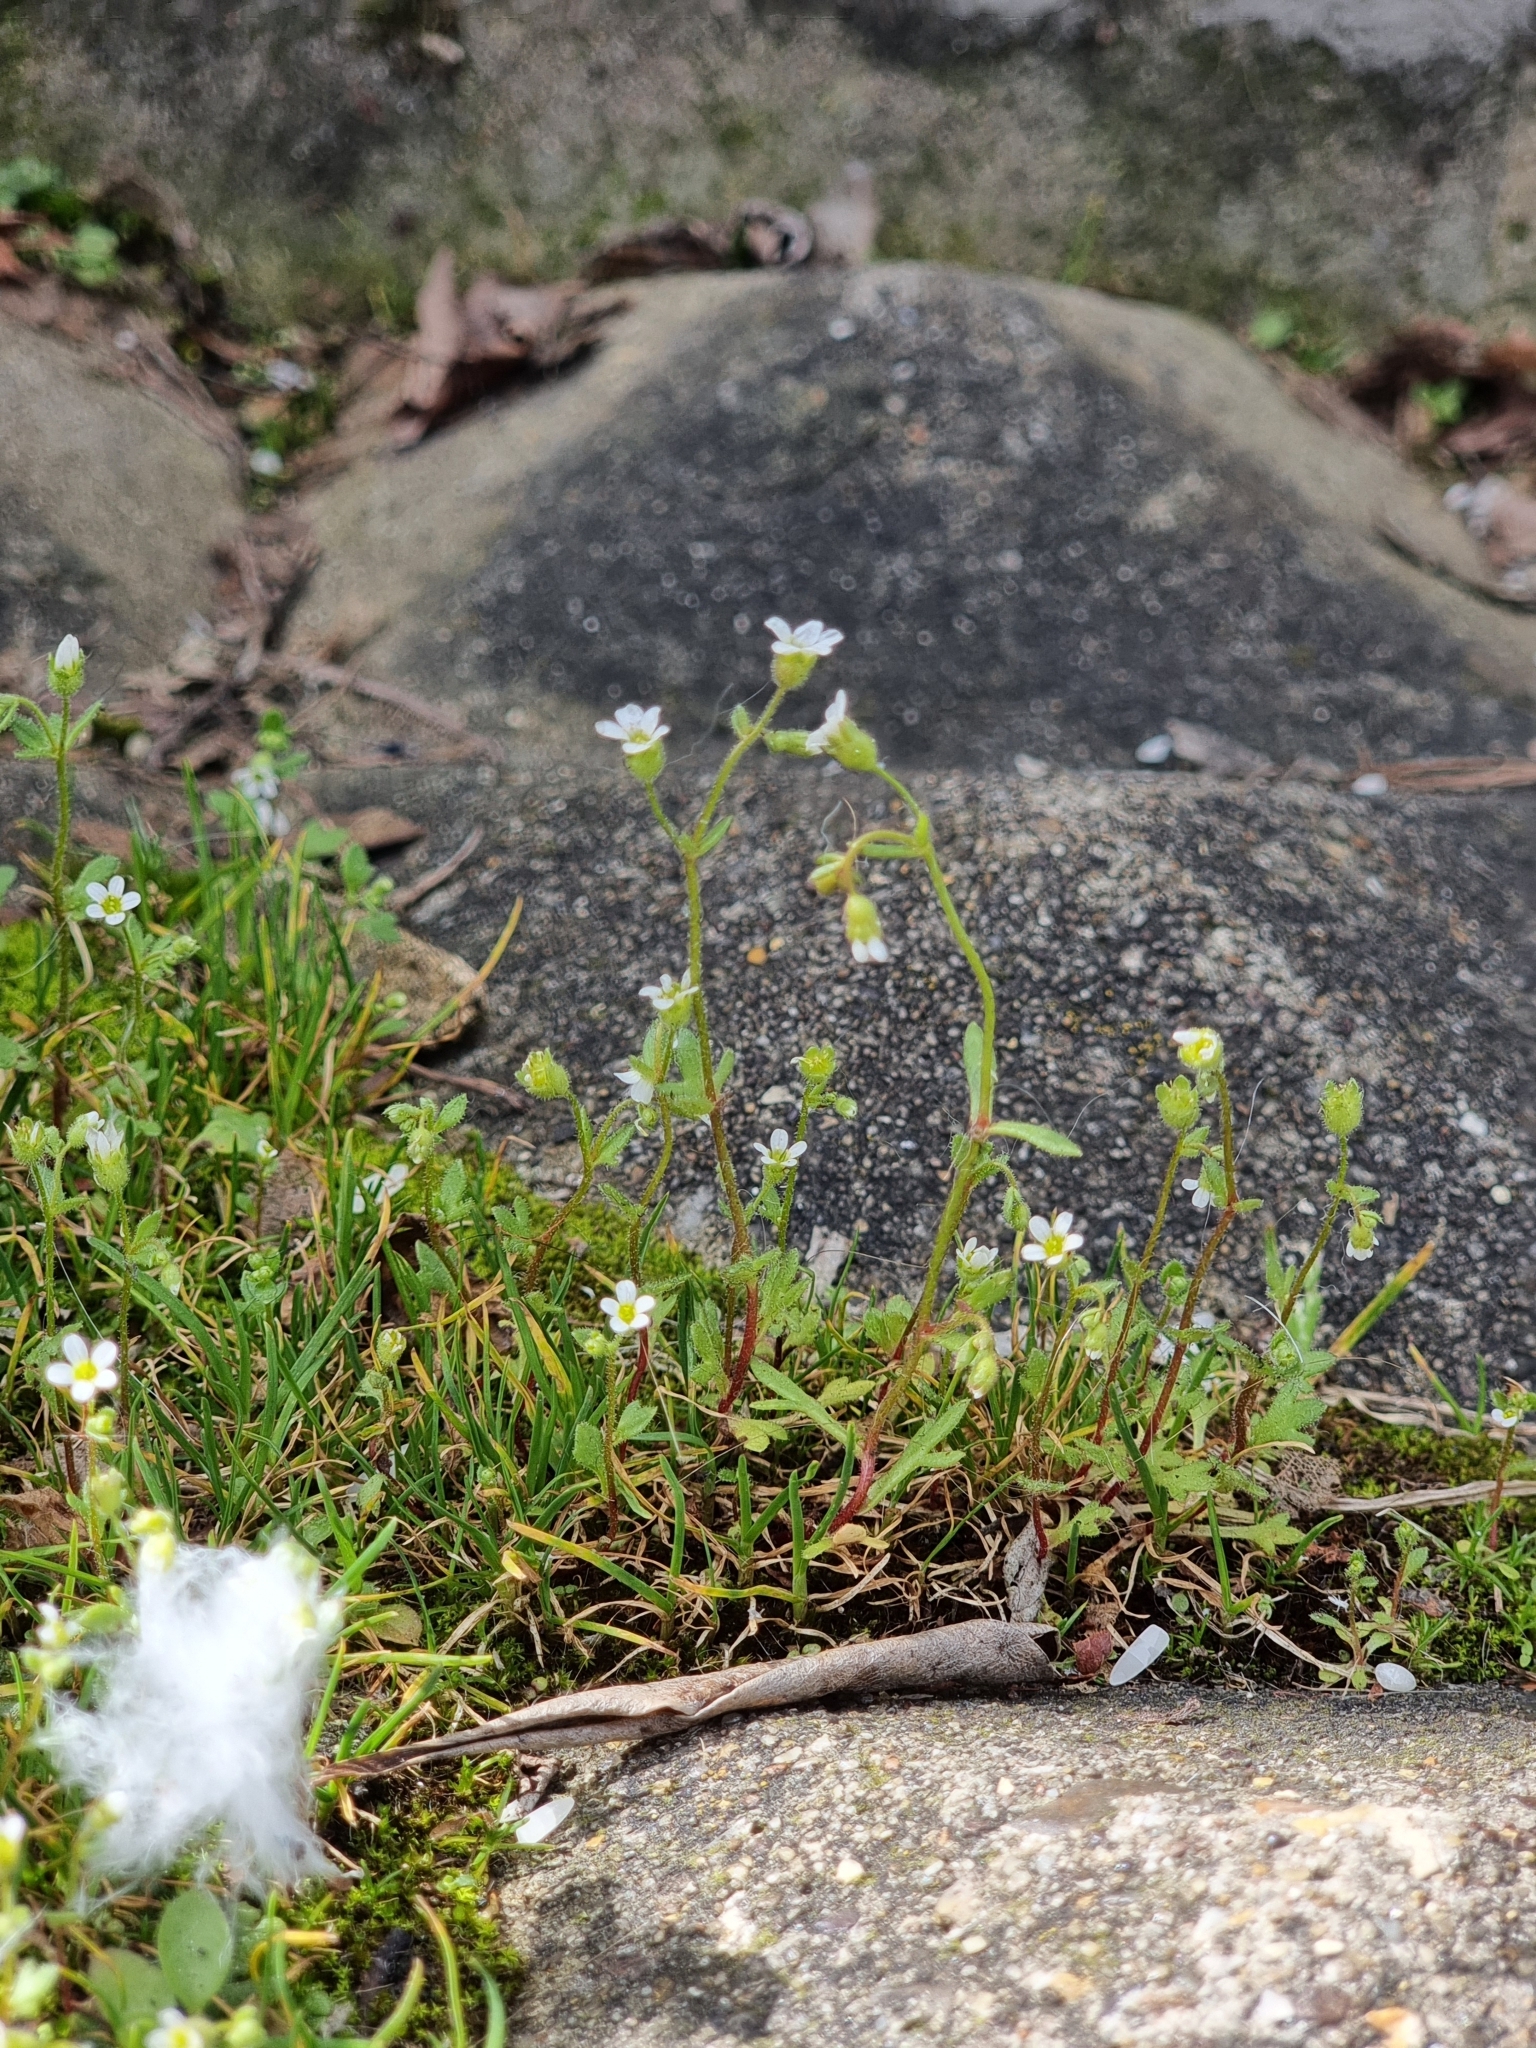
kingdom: Plantae
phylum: Tracheophyta
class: Magnoliopsida
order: Saxifragales
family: Saxifragaceae
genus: Saxifraga
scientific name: Saxifraga tridactylites
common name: Rue-leaved saxifrage
